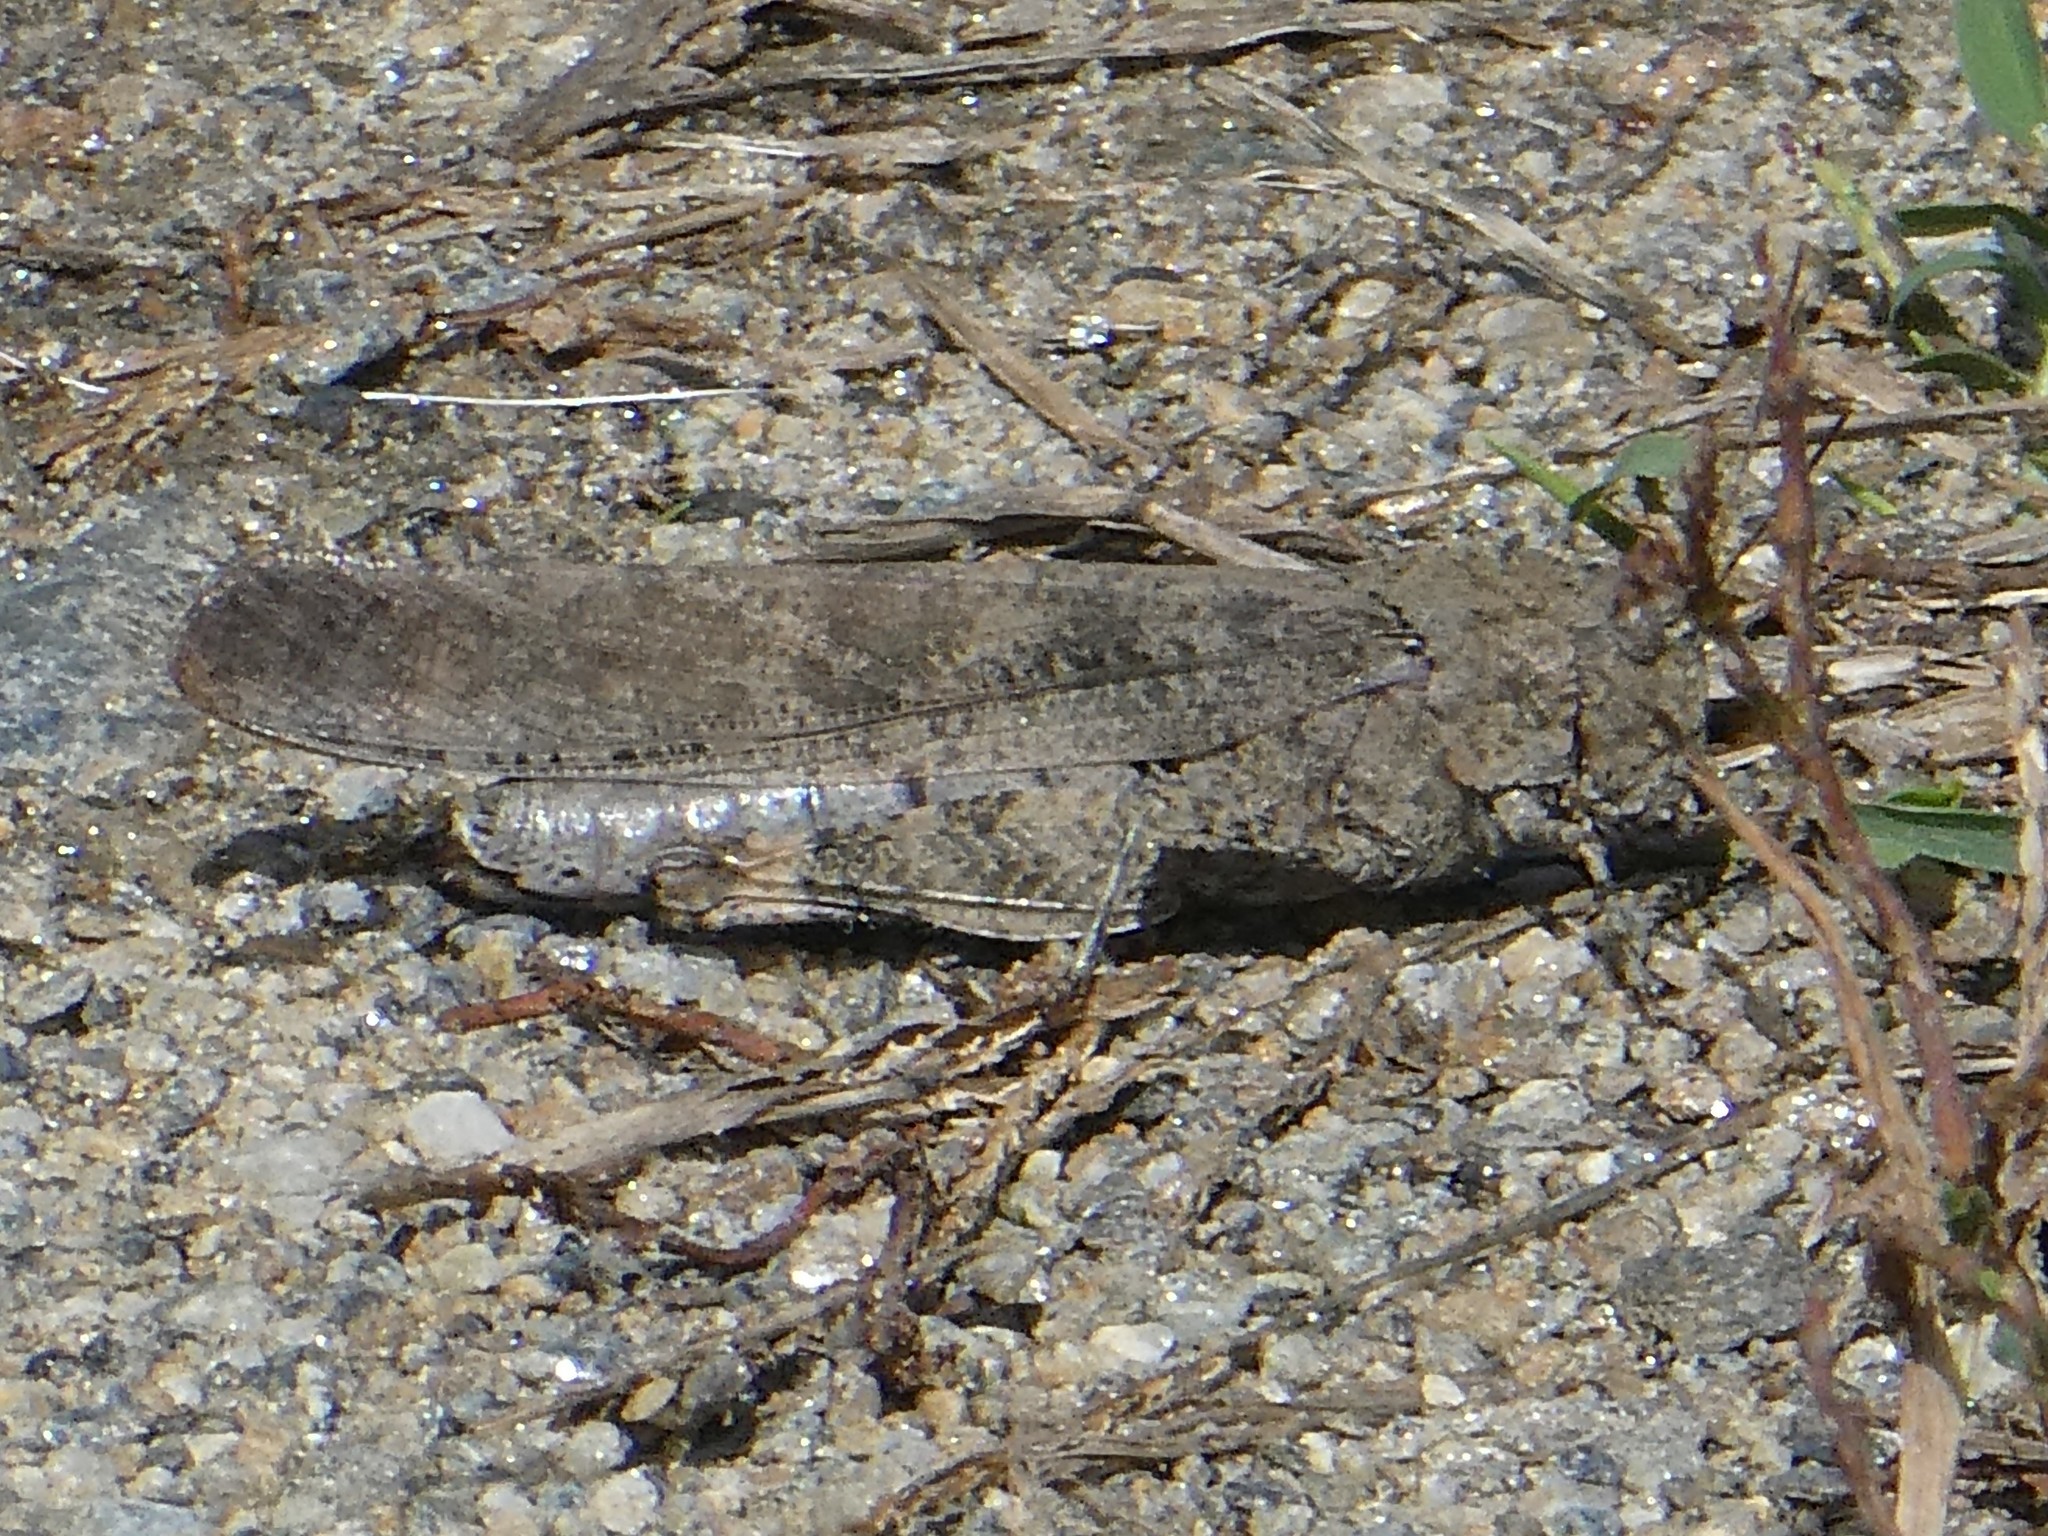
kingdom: Animalia
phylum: Arthropoda
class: Insecta
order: Orthoptera
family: Acrididae
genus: Dissosteira
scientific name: Dissosteira carolina
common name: Carolina grasshopper
